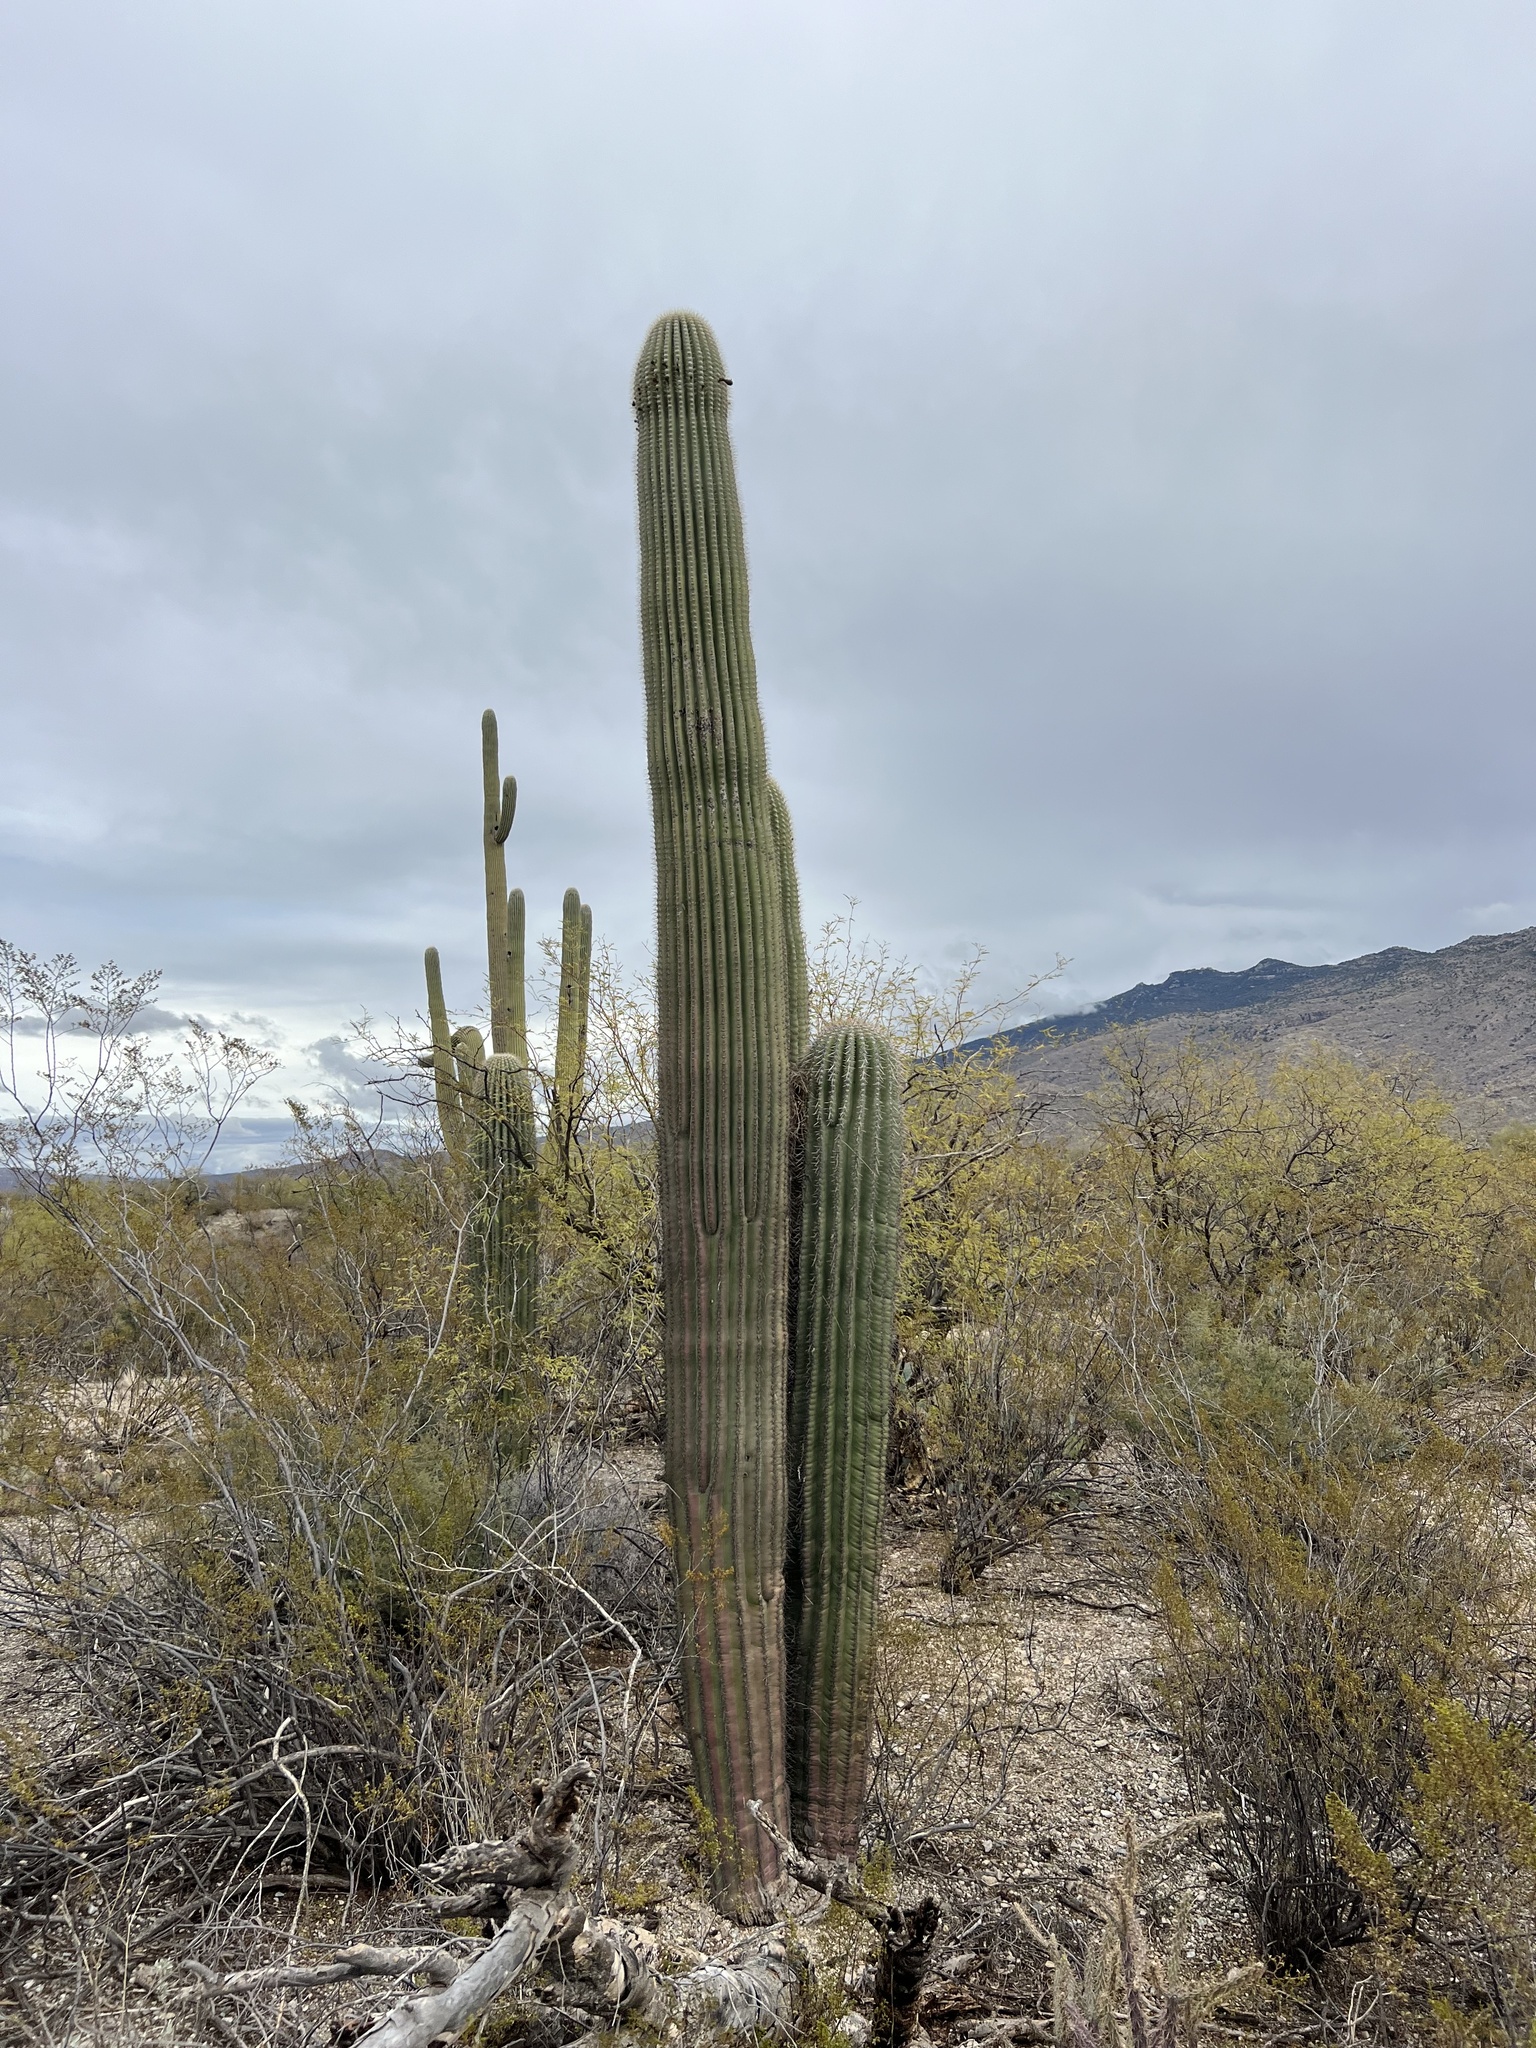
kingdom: Plantae
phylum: Tracheophyta
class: Magnoliopsida
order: Caryophyllales
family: Cactaceae
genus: Carnegiea
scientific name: Carnegiea gigantea
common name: Saguaro
